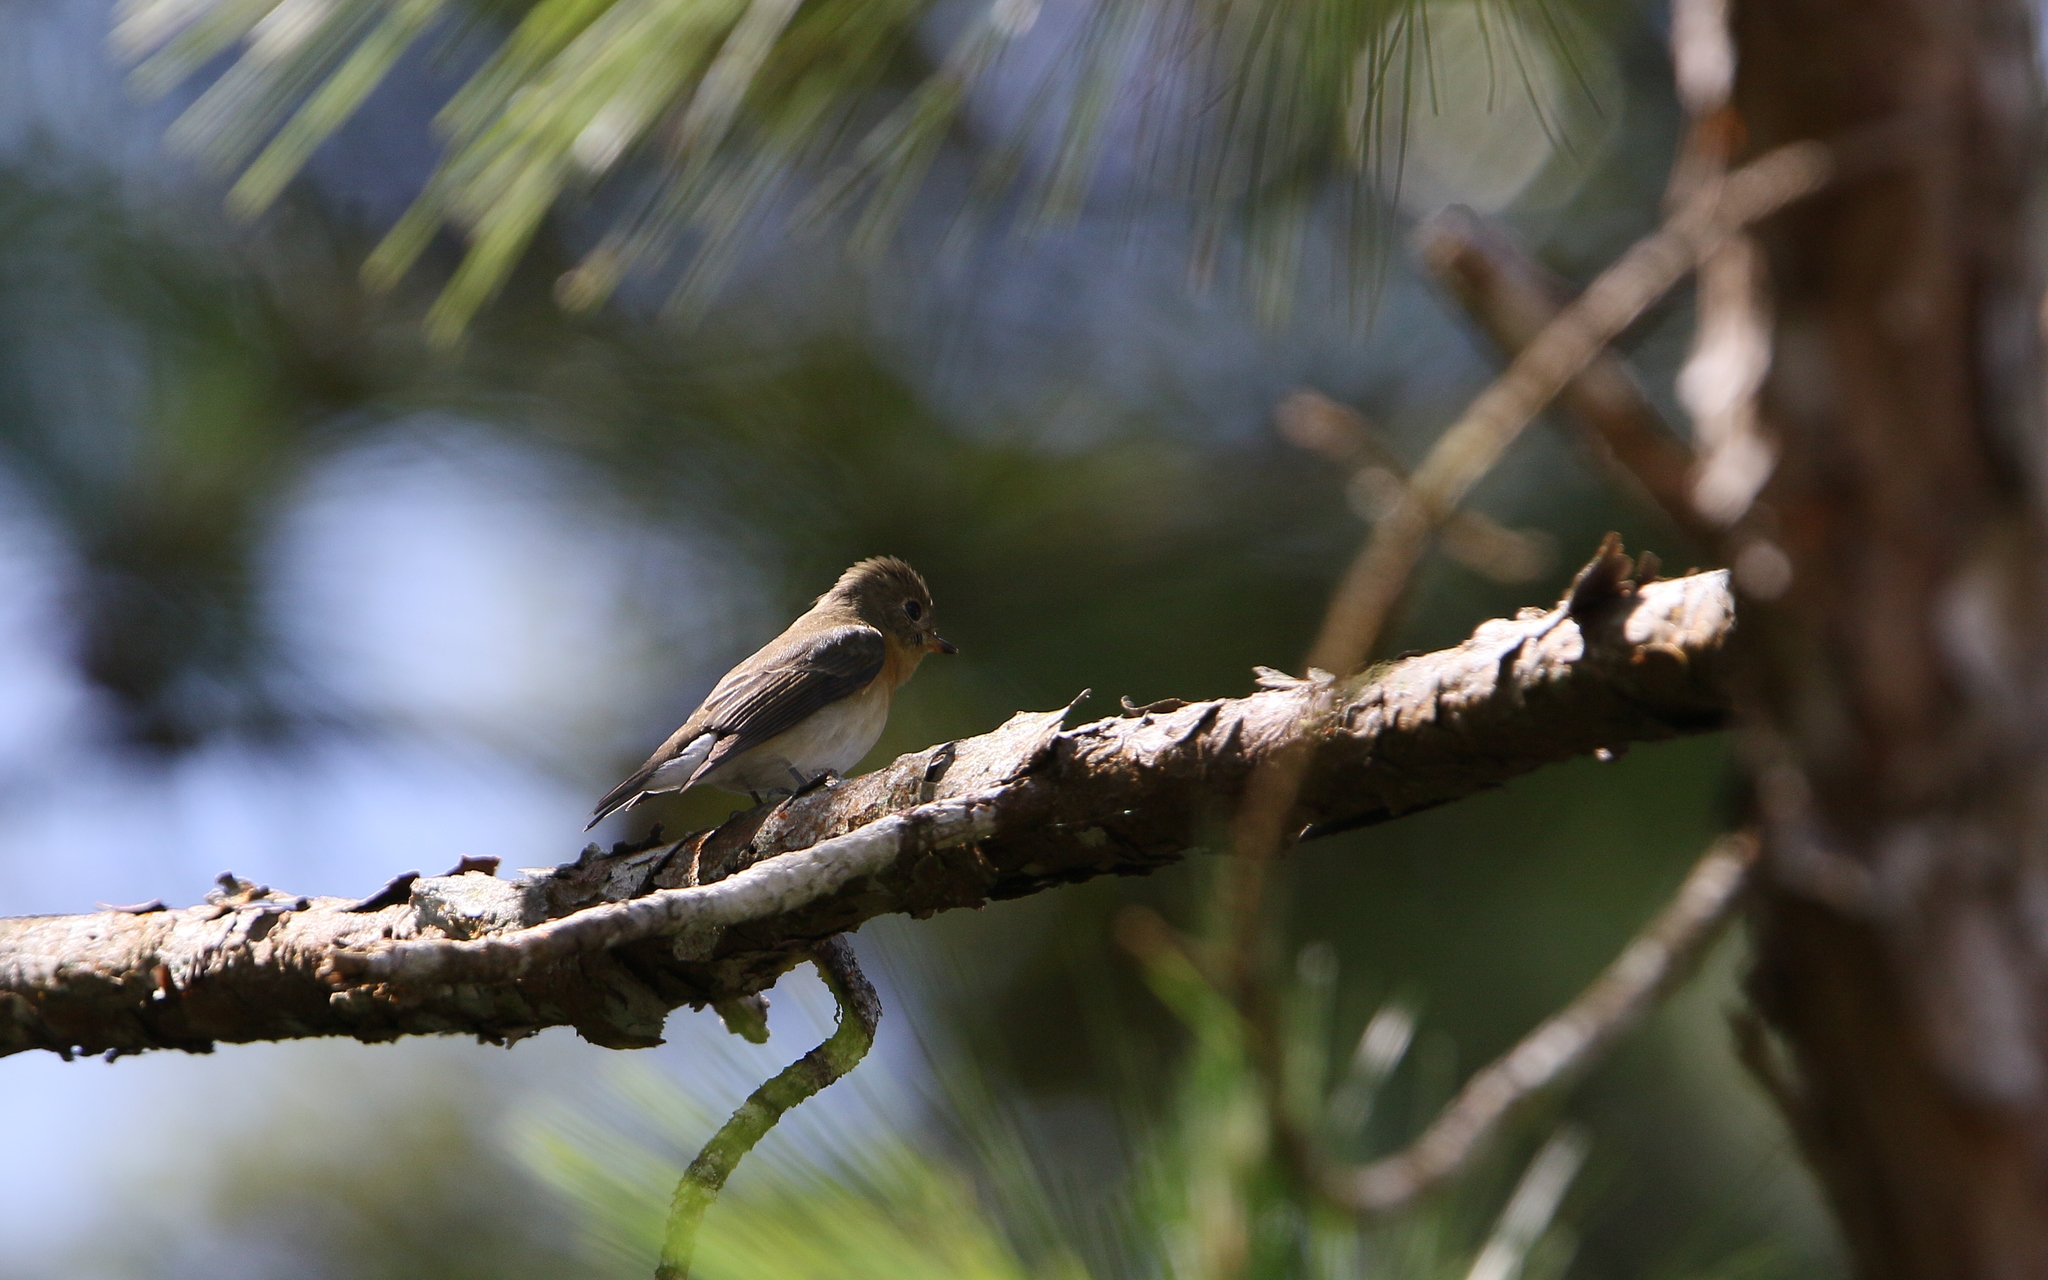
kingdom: Animalia
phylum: Chordata
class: Aves
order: Passeriformes
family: Muscicapidae
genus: Ficedula
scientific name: Ficedula mugimaki
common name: Mugimaki flycatcher
